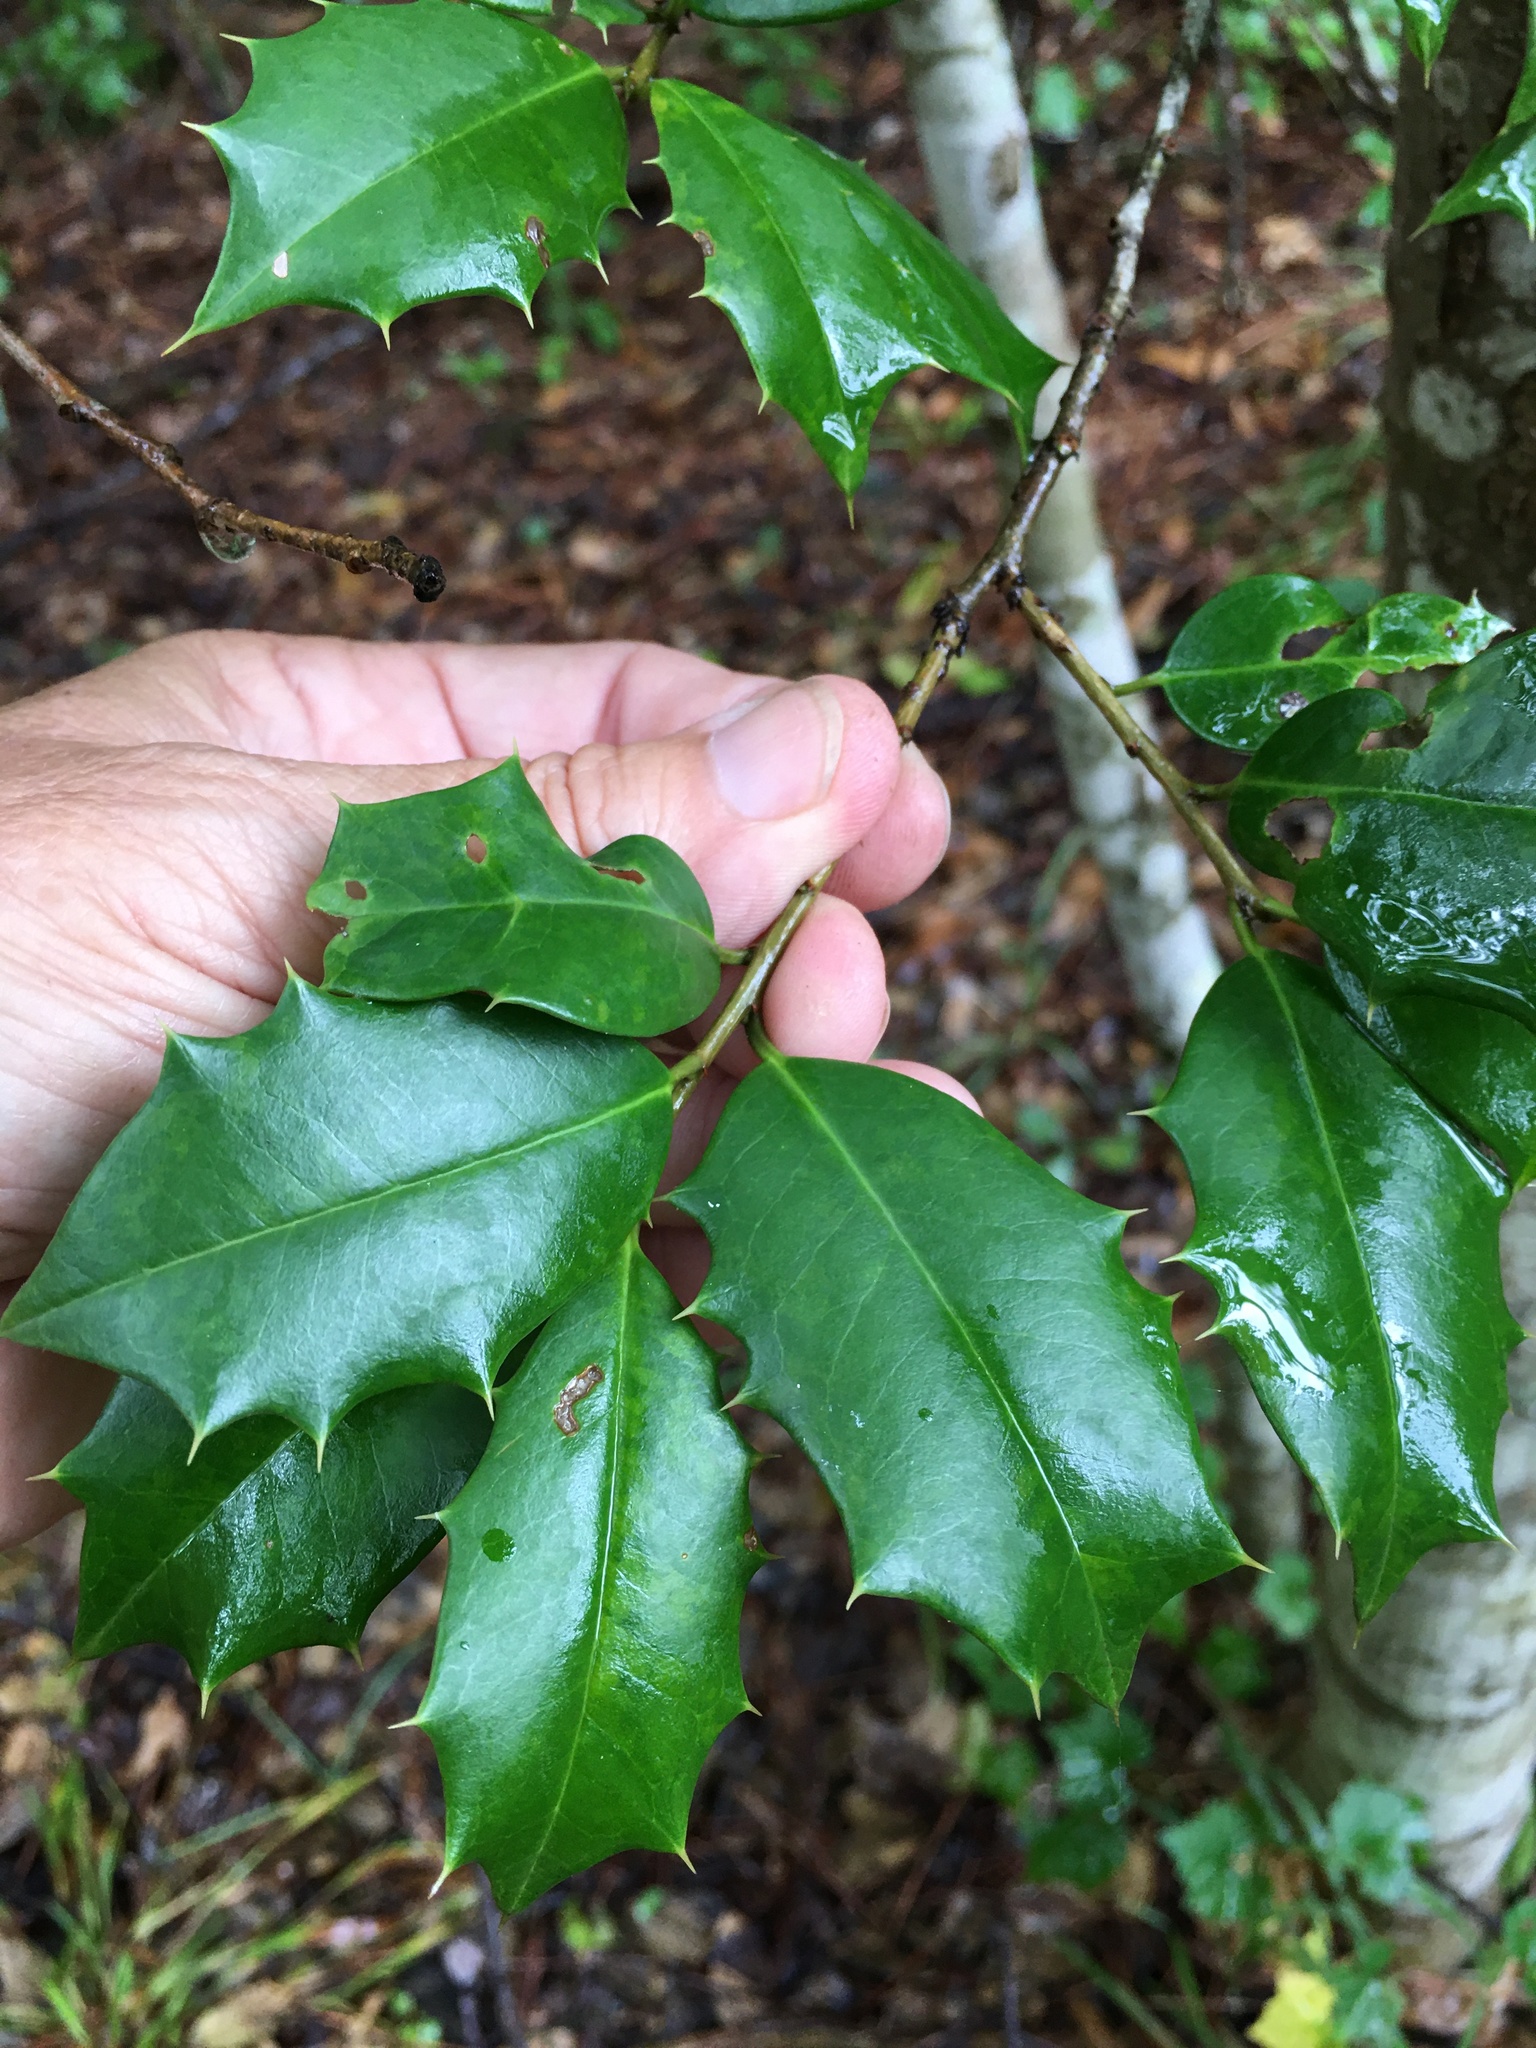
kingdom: Plantae
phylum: Tracheophyta
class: Magnoliopsida
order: Aquifoliales
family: Aquifoliaceae
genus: Ilex
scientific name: Ilex opaca
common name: American holly
